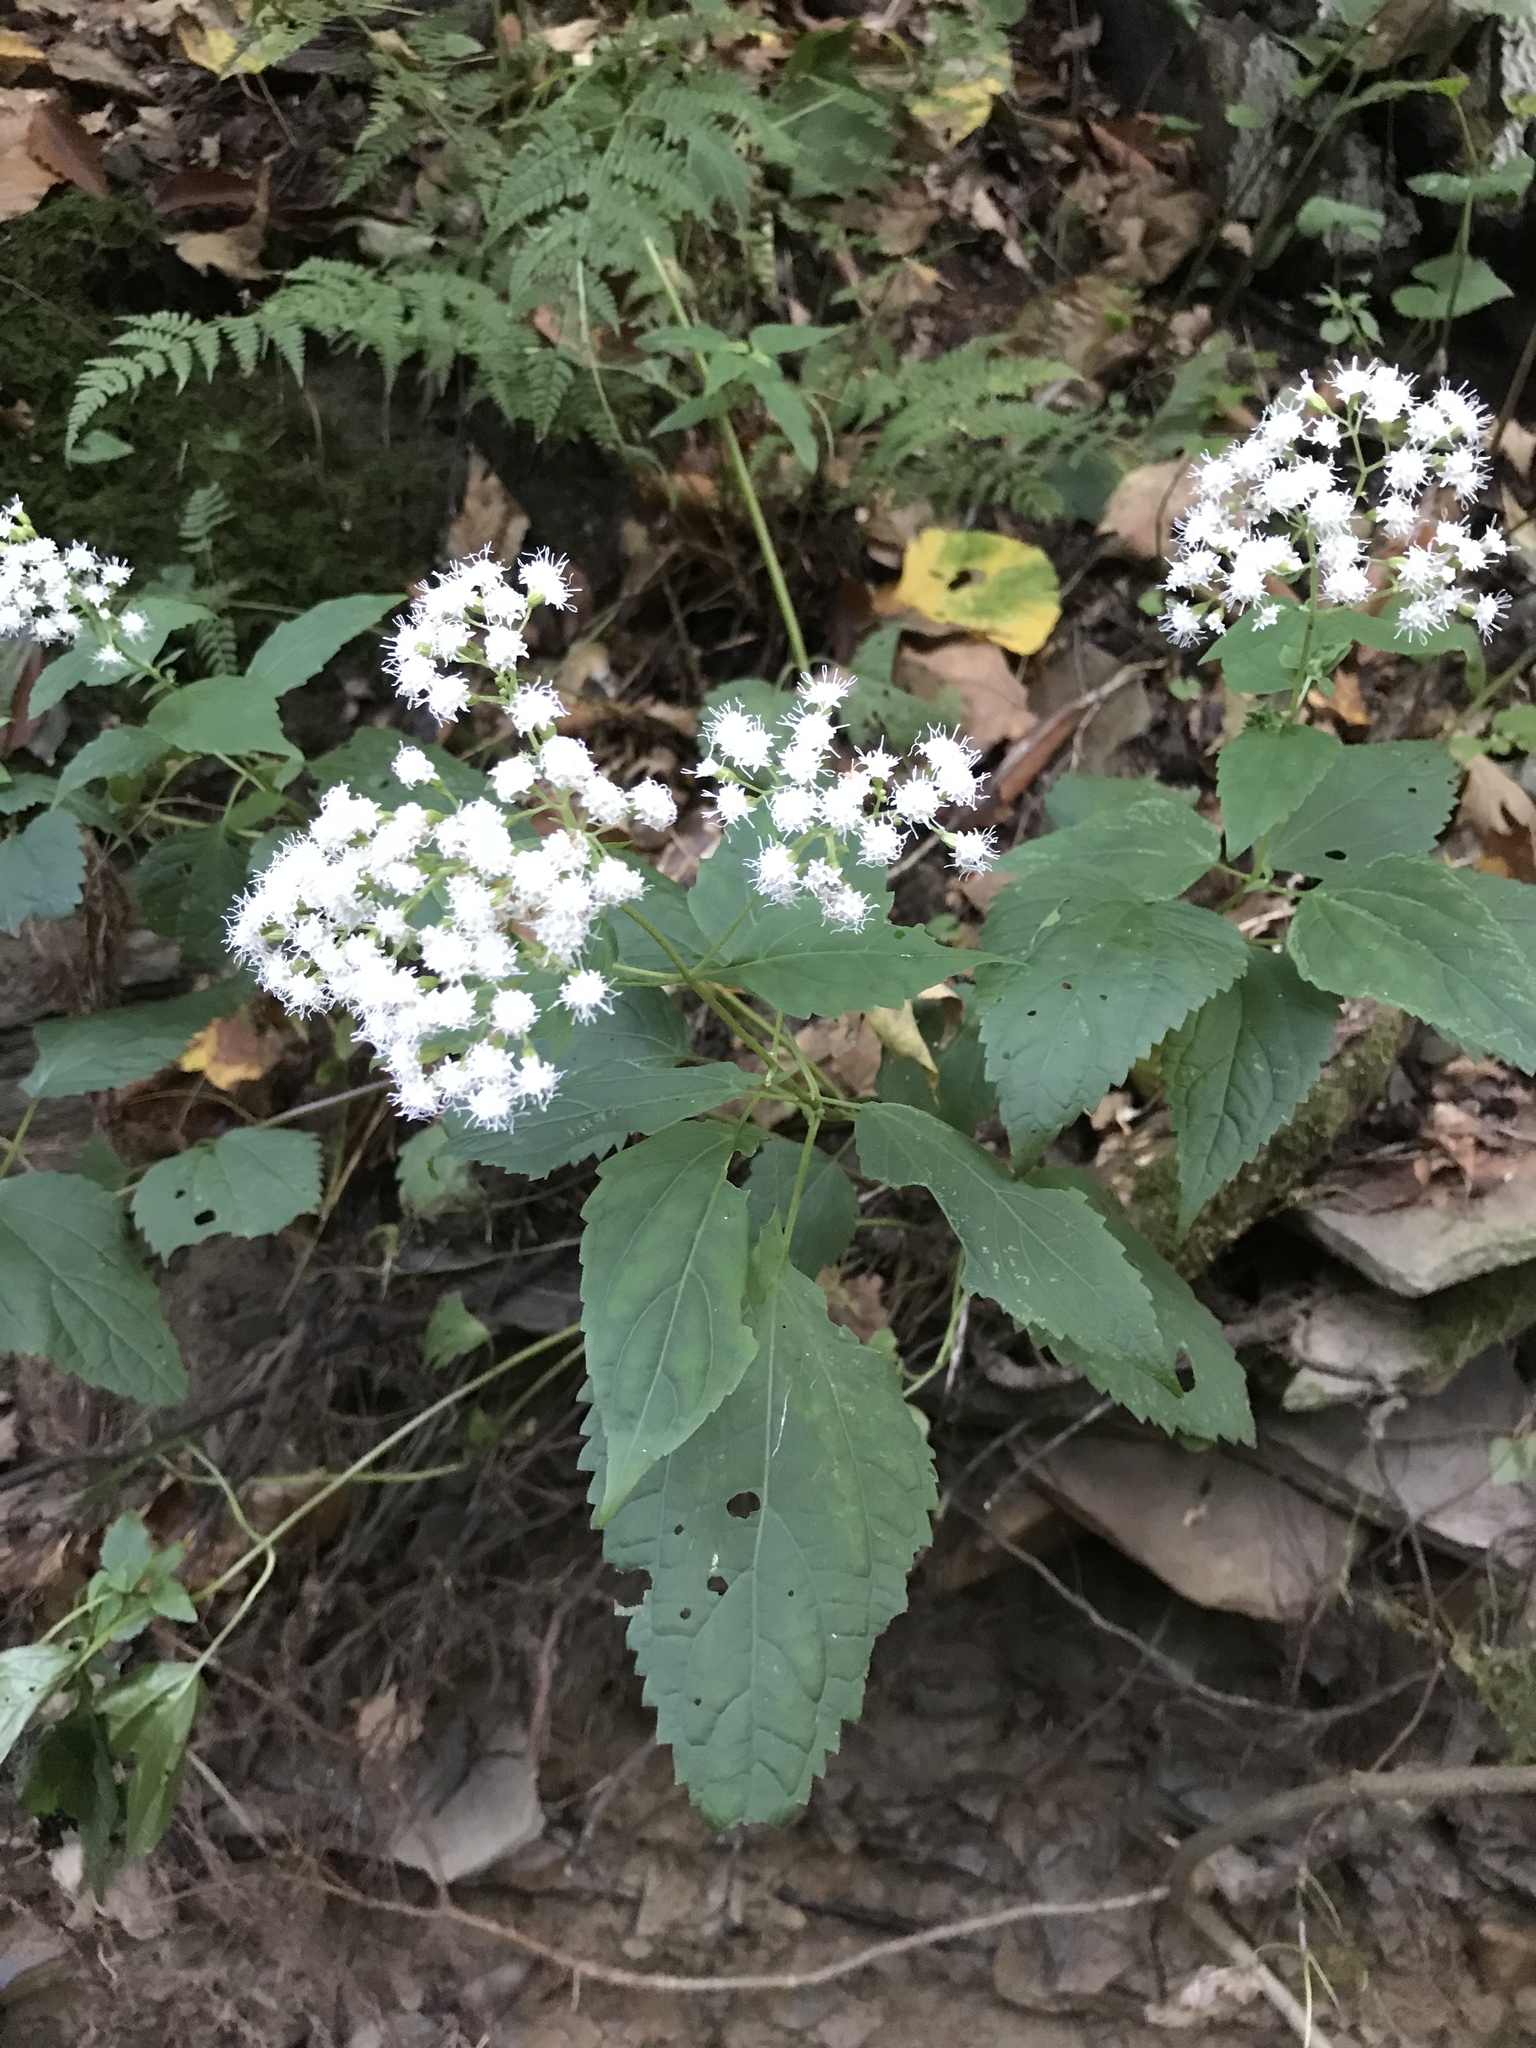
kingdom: Plantae
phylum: Tracheophyta
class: Magnoliopsida
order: Asterales
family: Asteraceae
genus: Ageratina
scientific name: Ageratina altissima
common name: White snakeroot
